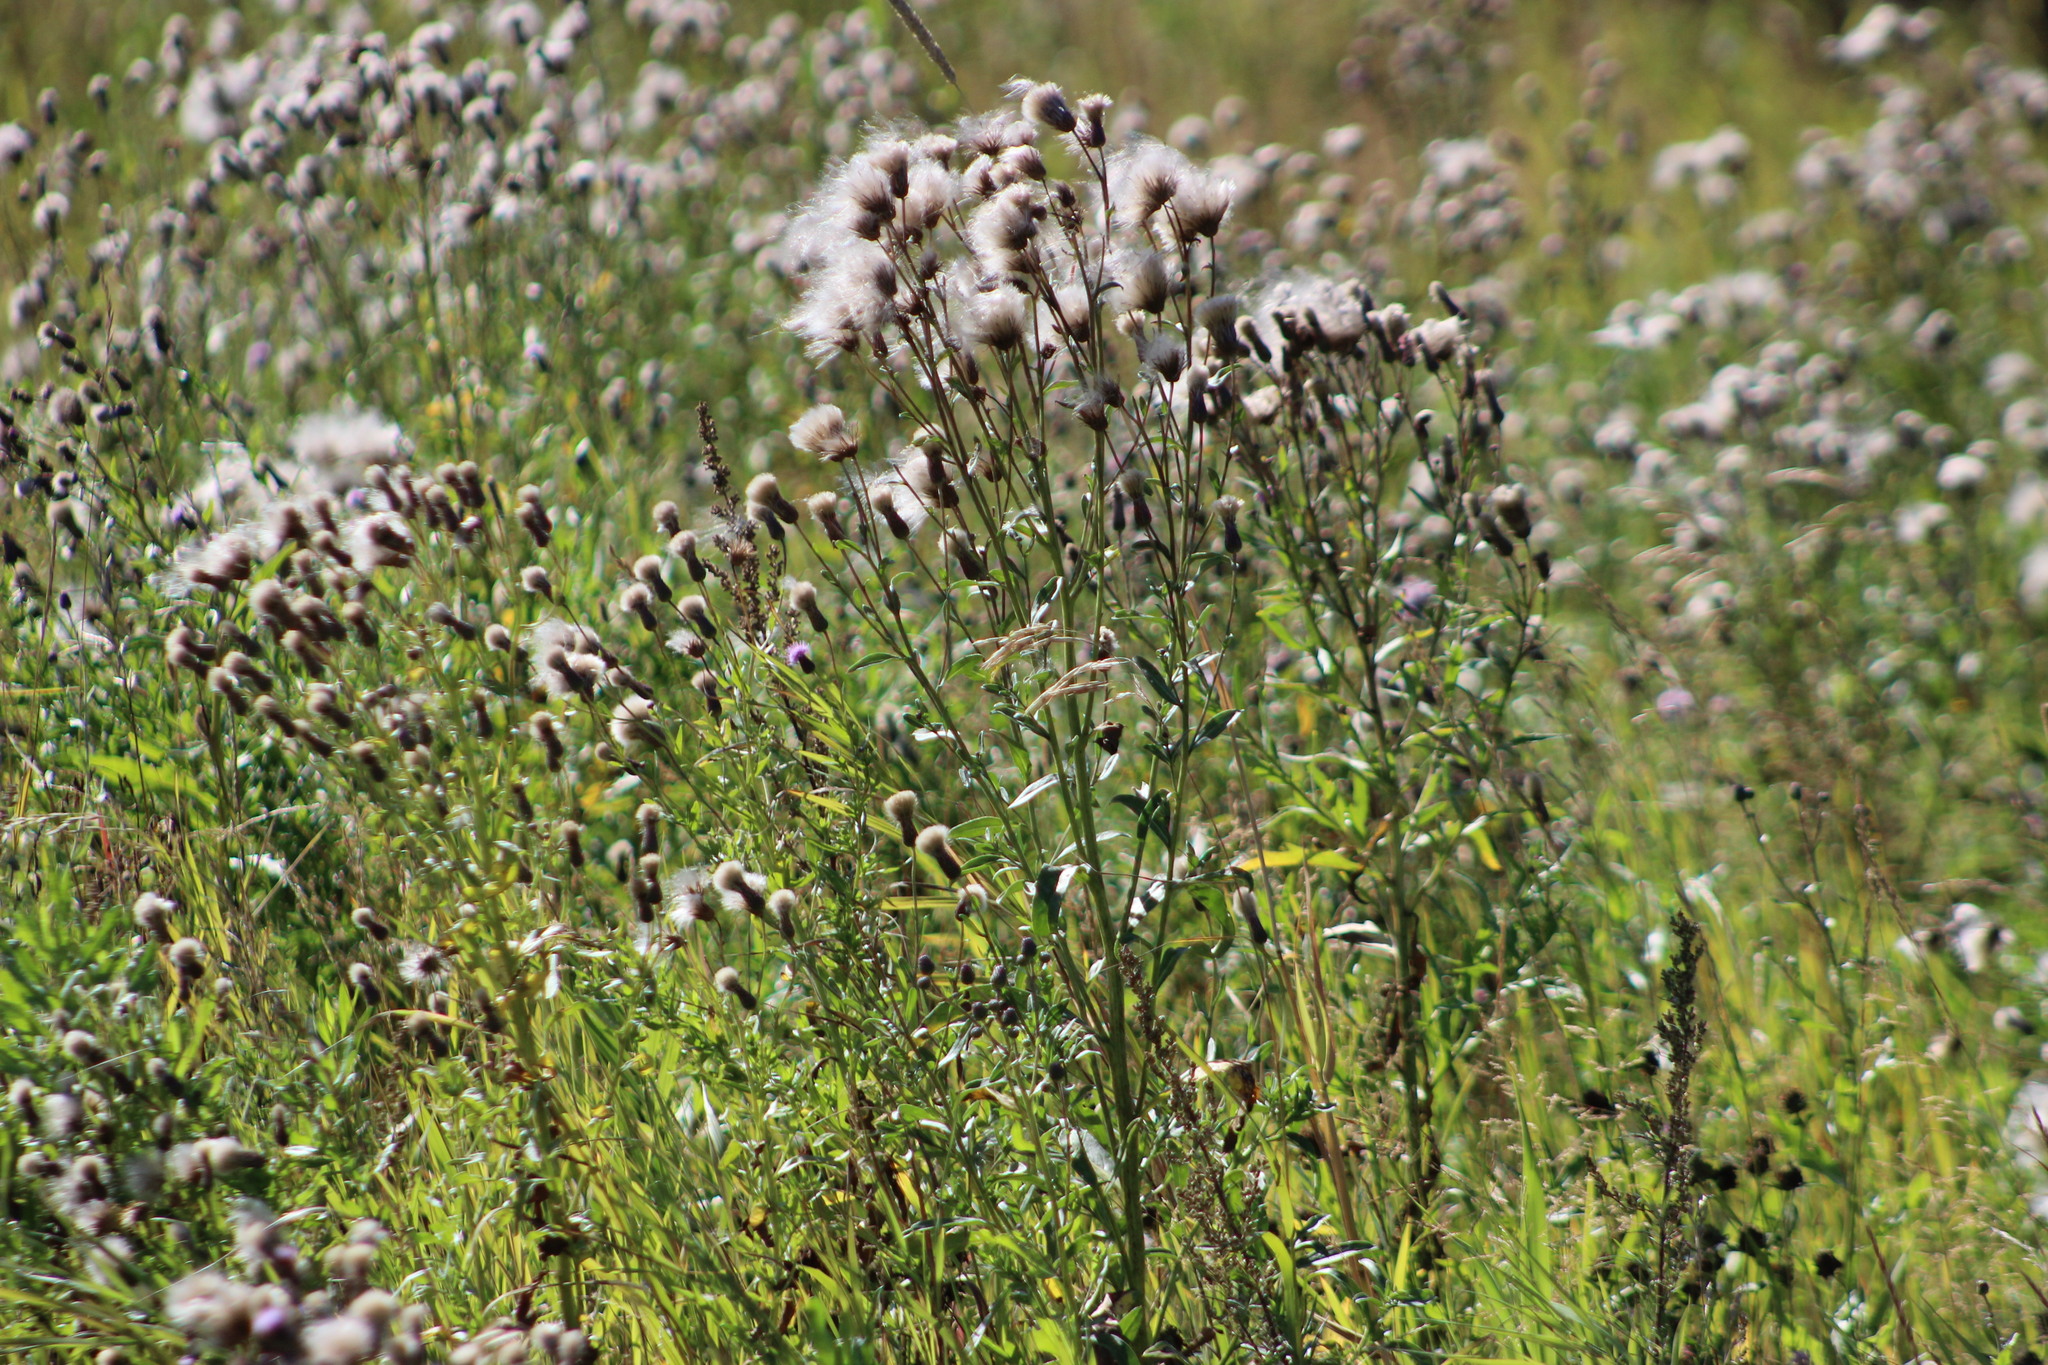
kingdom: Plantae
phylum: Tracheophyta
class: Magnoliopsida
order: Asterales
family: Asteraceae
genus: Cirsium
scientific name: Cirsium arvense
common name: Creeping thistle
